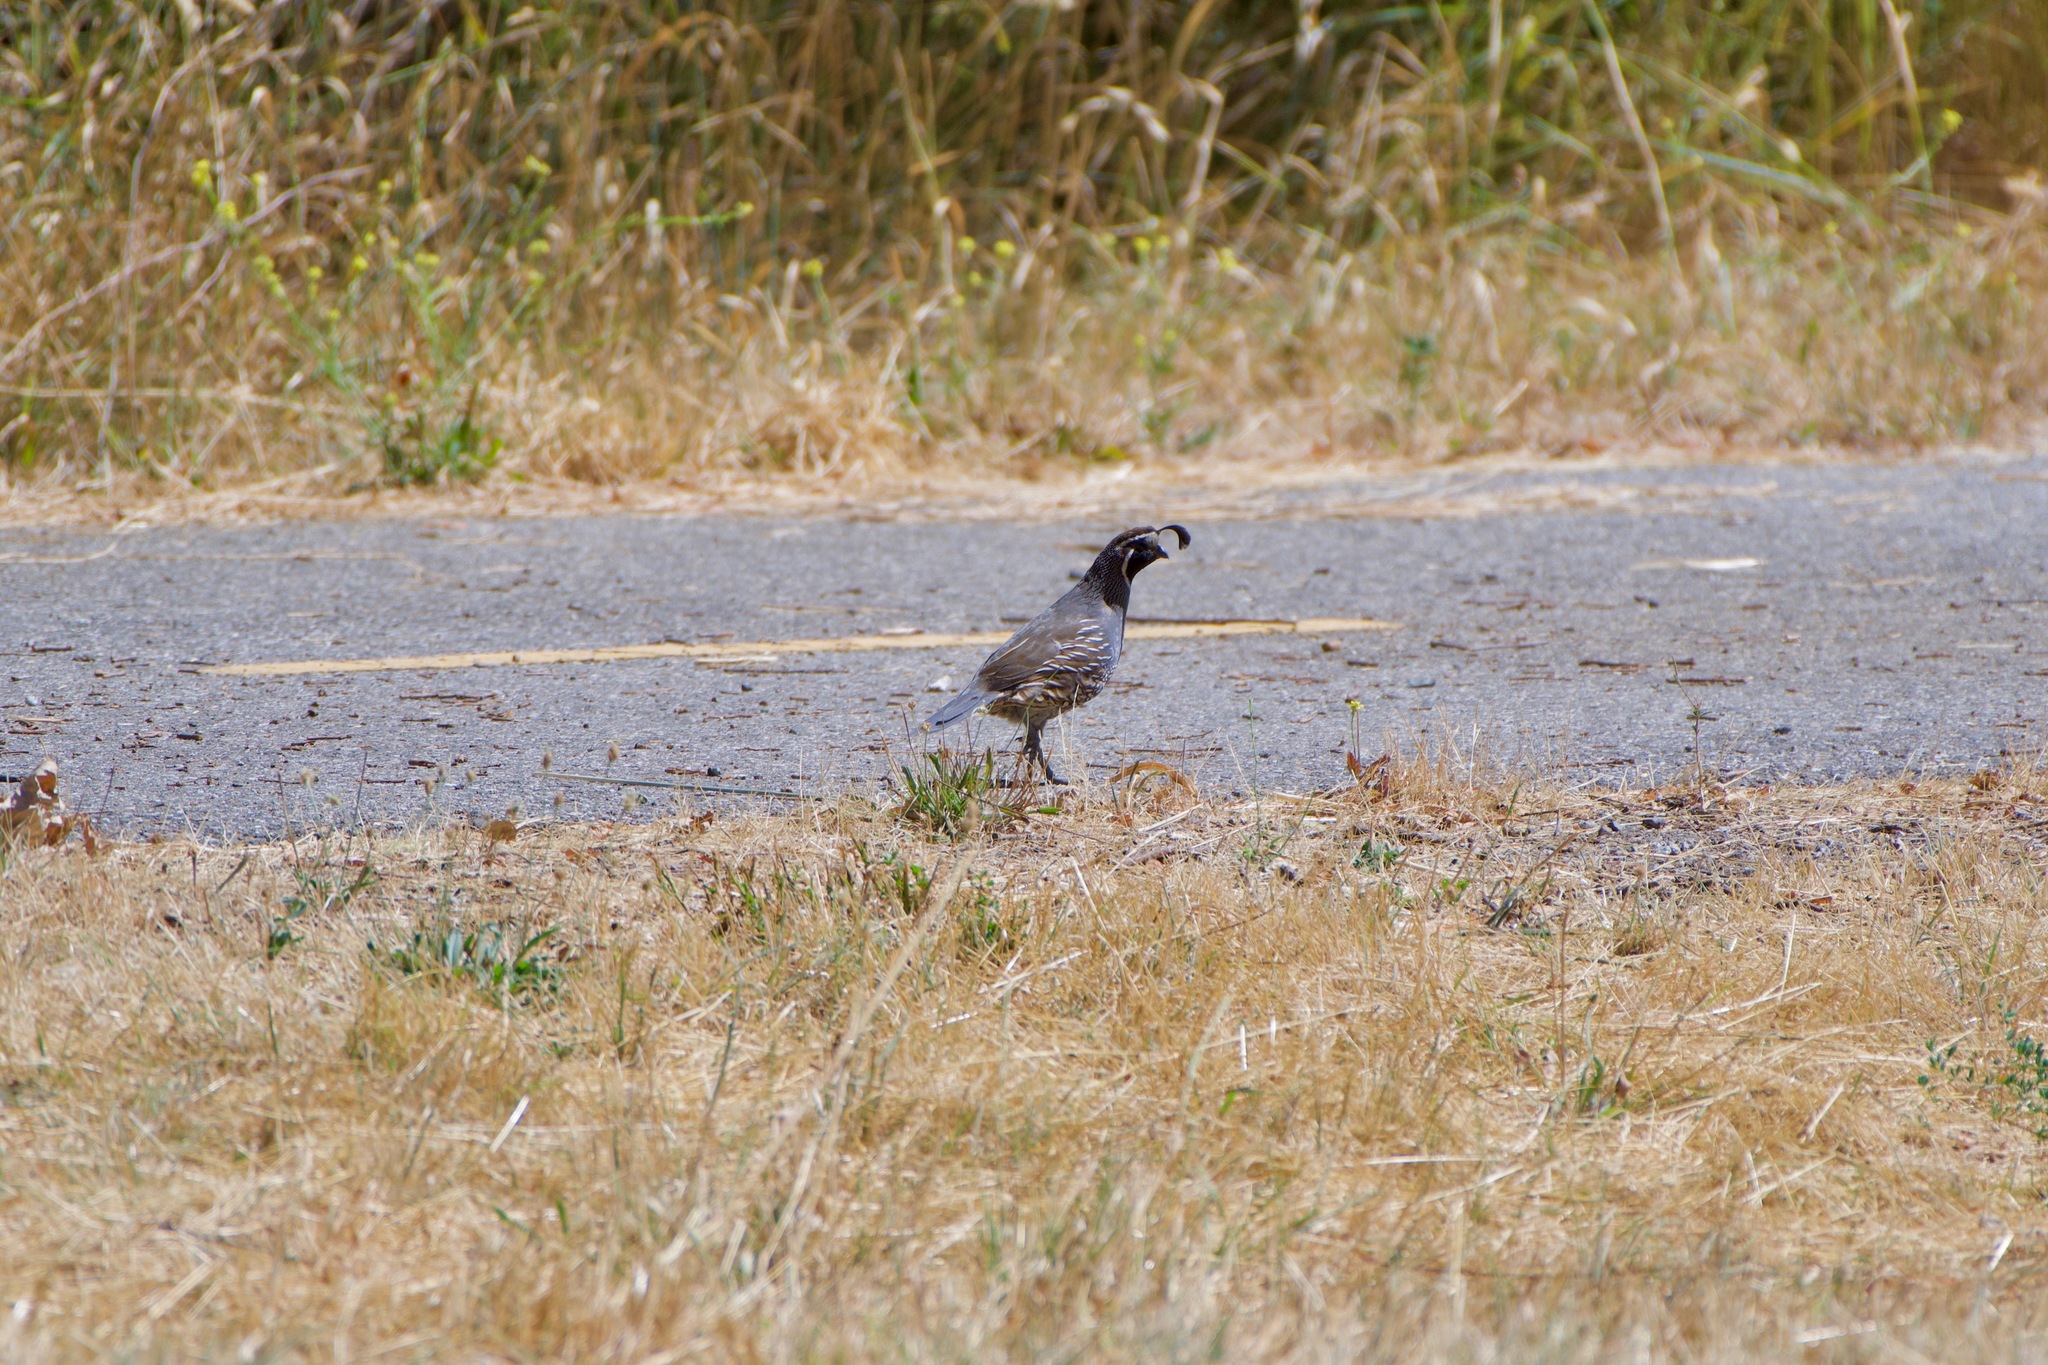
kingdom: Animalia
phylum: Chordata
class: Aves
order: Galliformes
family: Odontophoridae
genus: Callipepla
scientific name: Callipepla californica
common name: California quail
